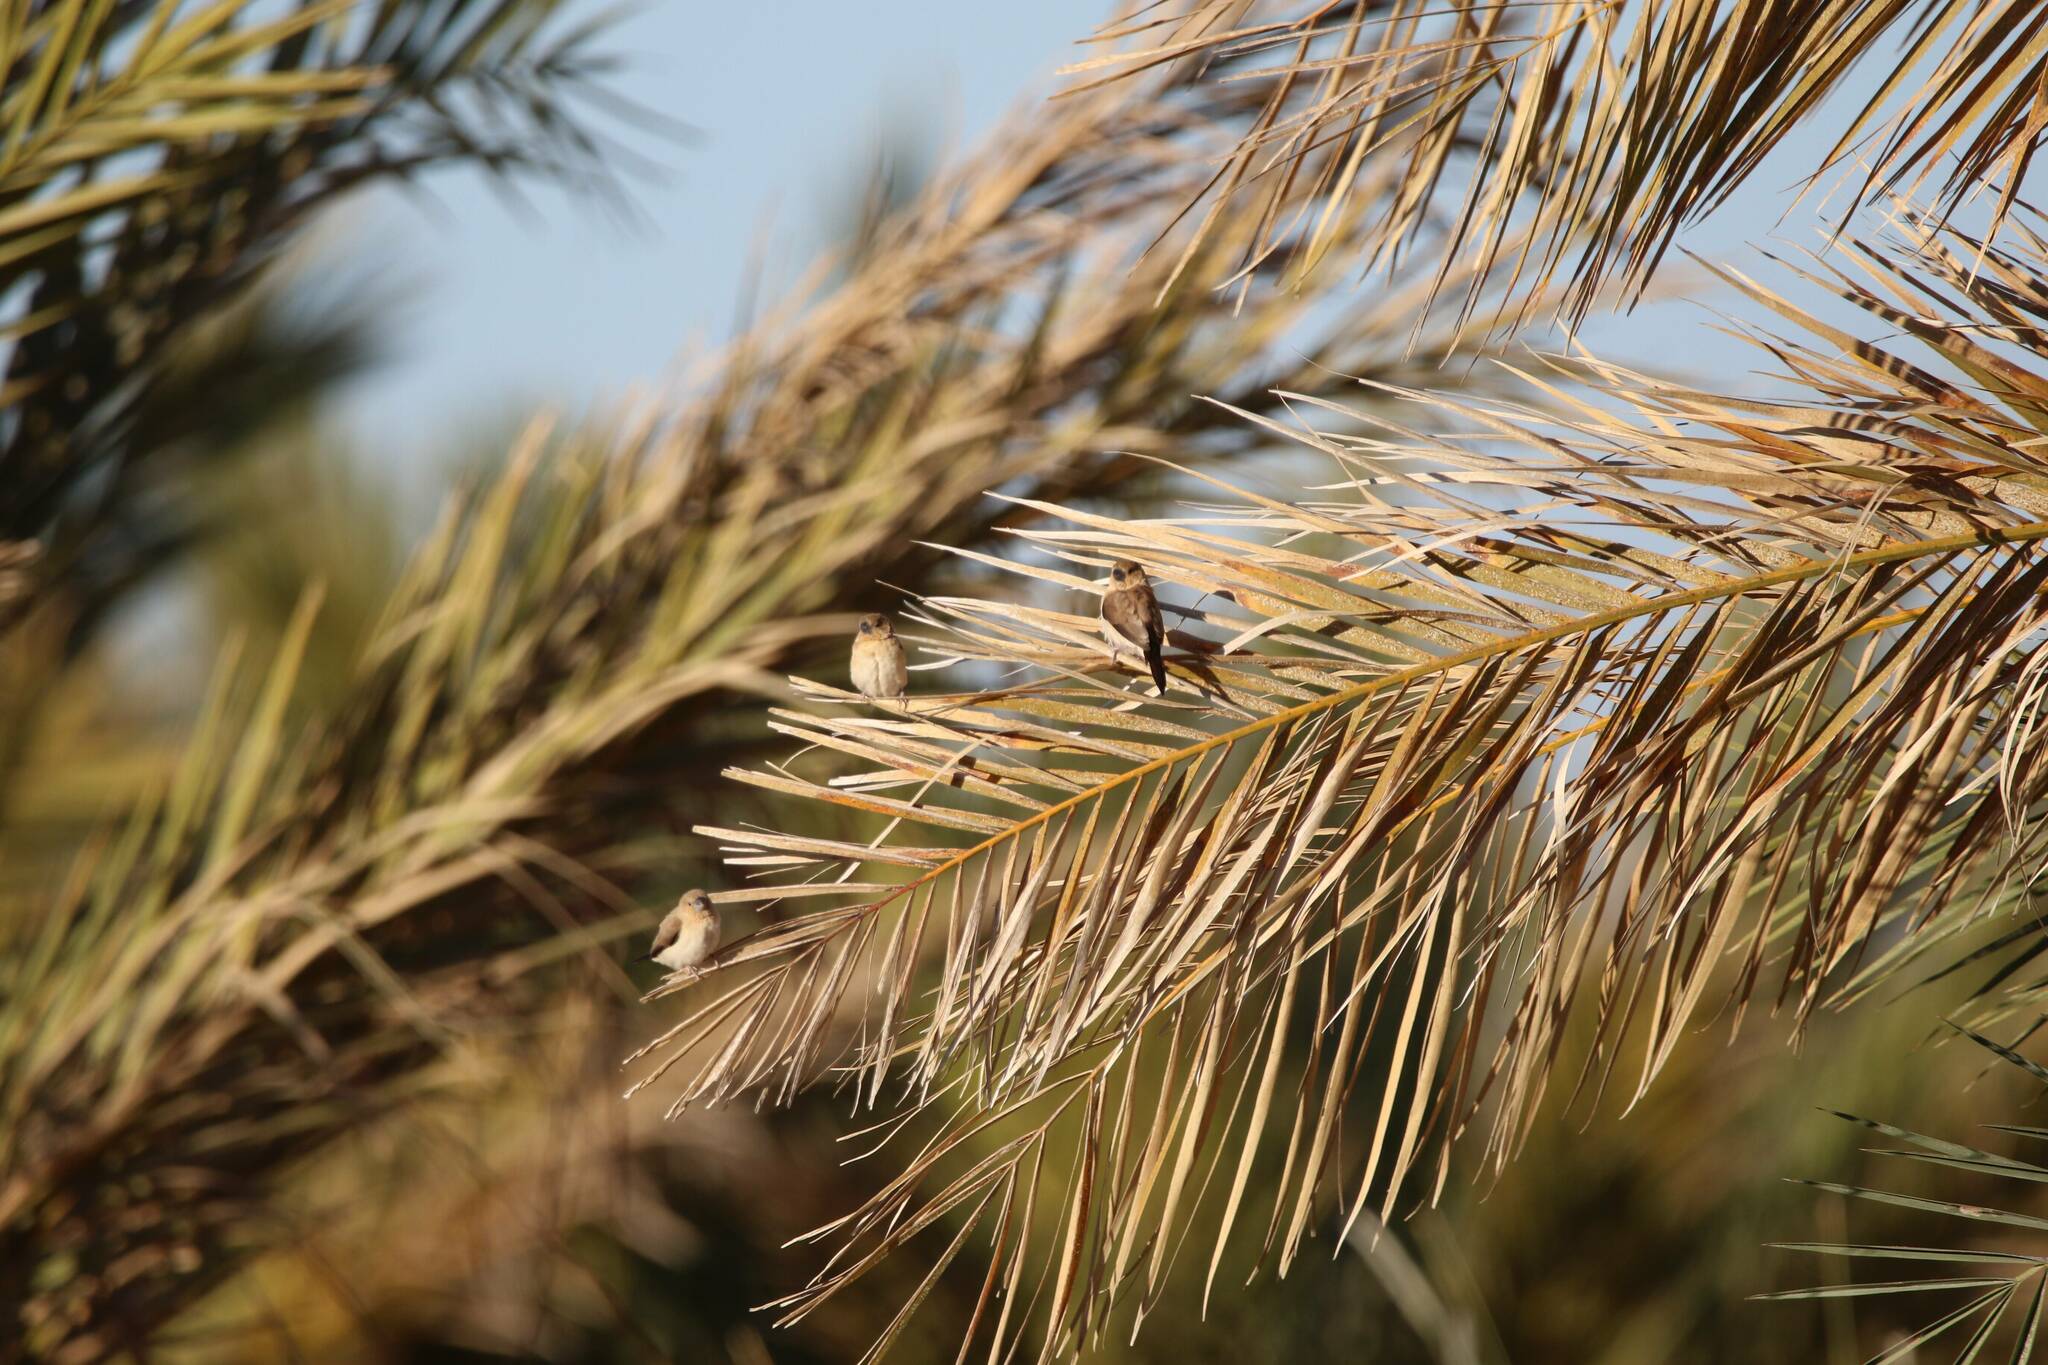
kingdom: Animalia
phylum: Chordata
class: Aves
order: Passeriformes
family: Estrildidae
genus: Euodice
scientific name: Euodice cantans
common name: African silverbill
